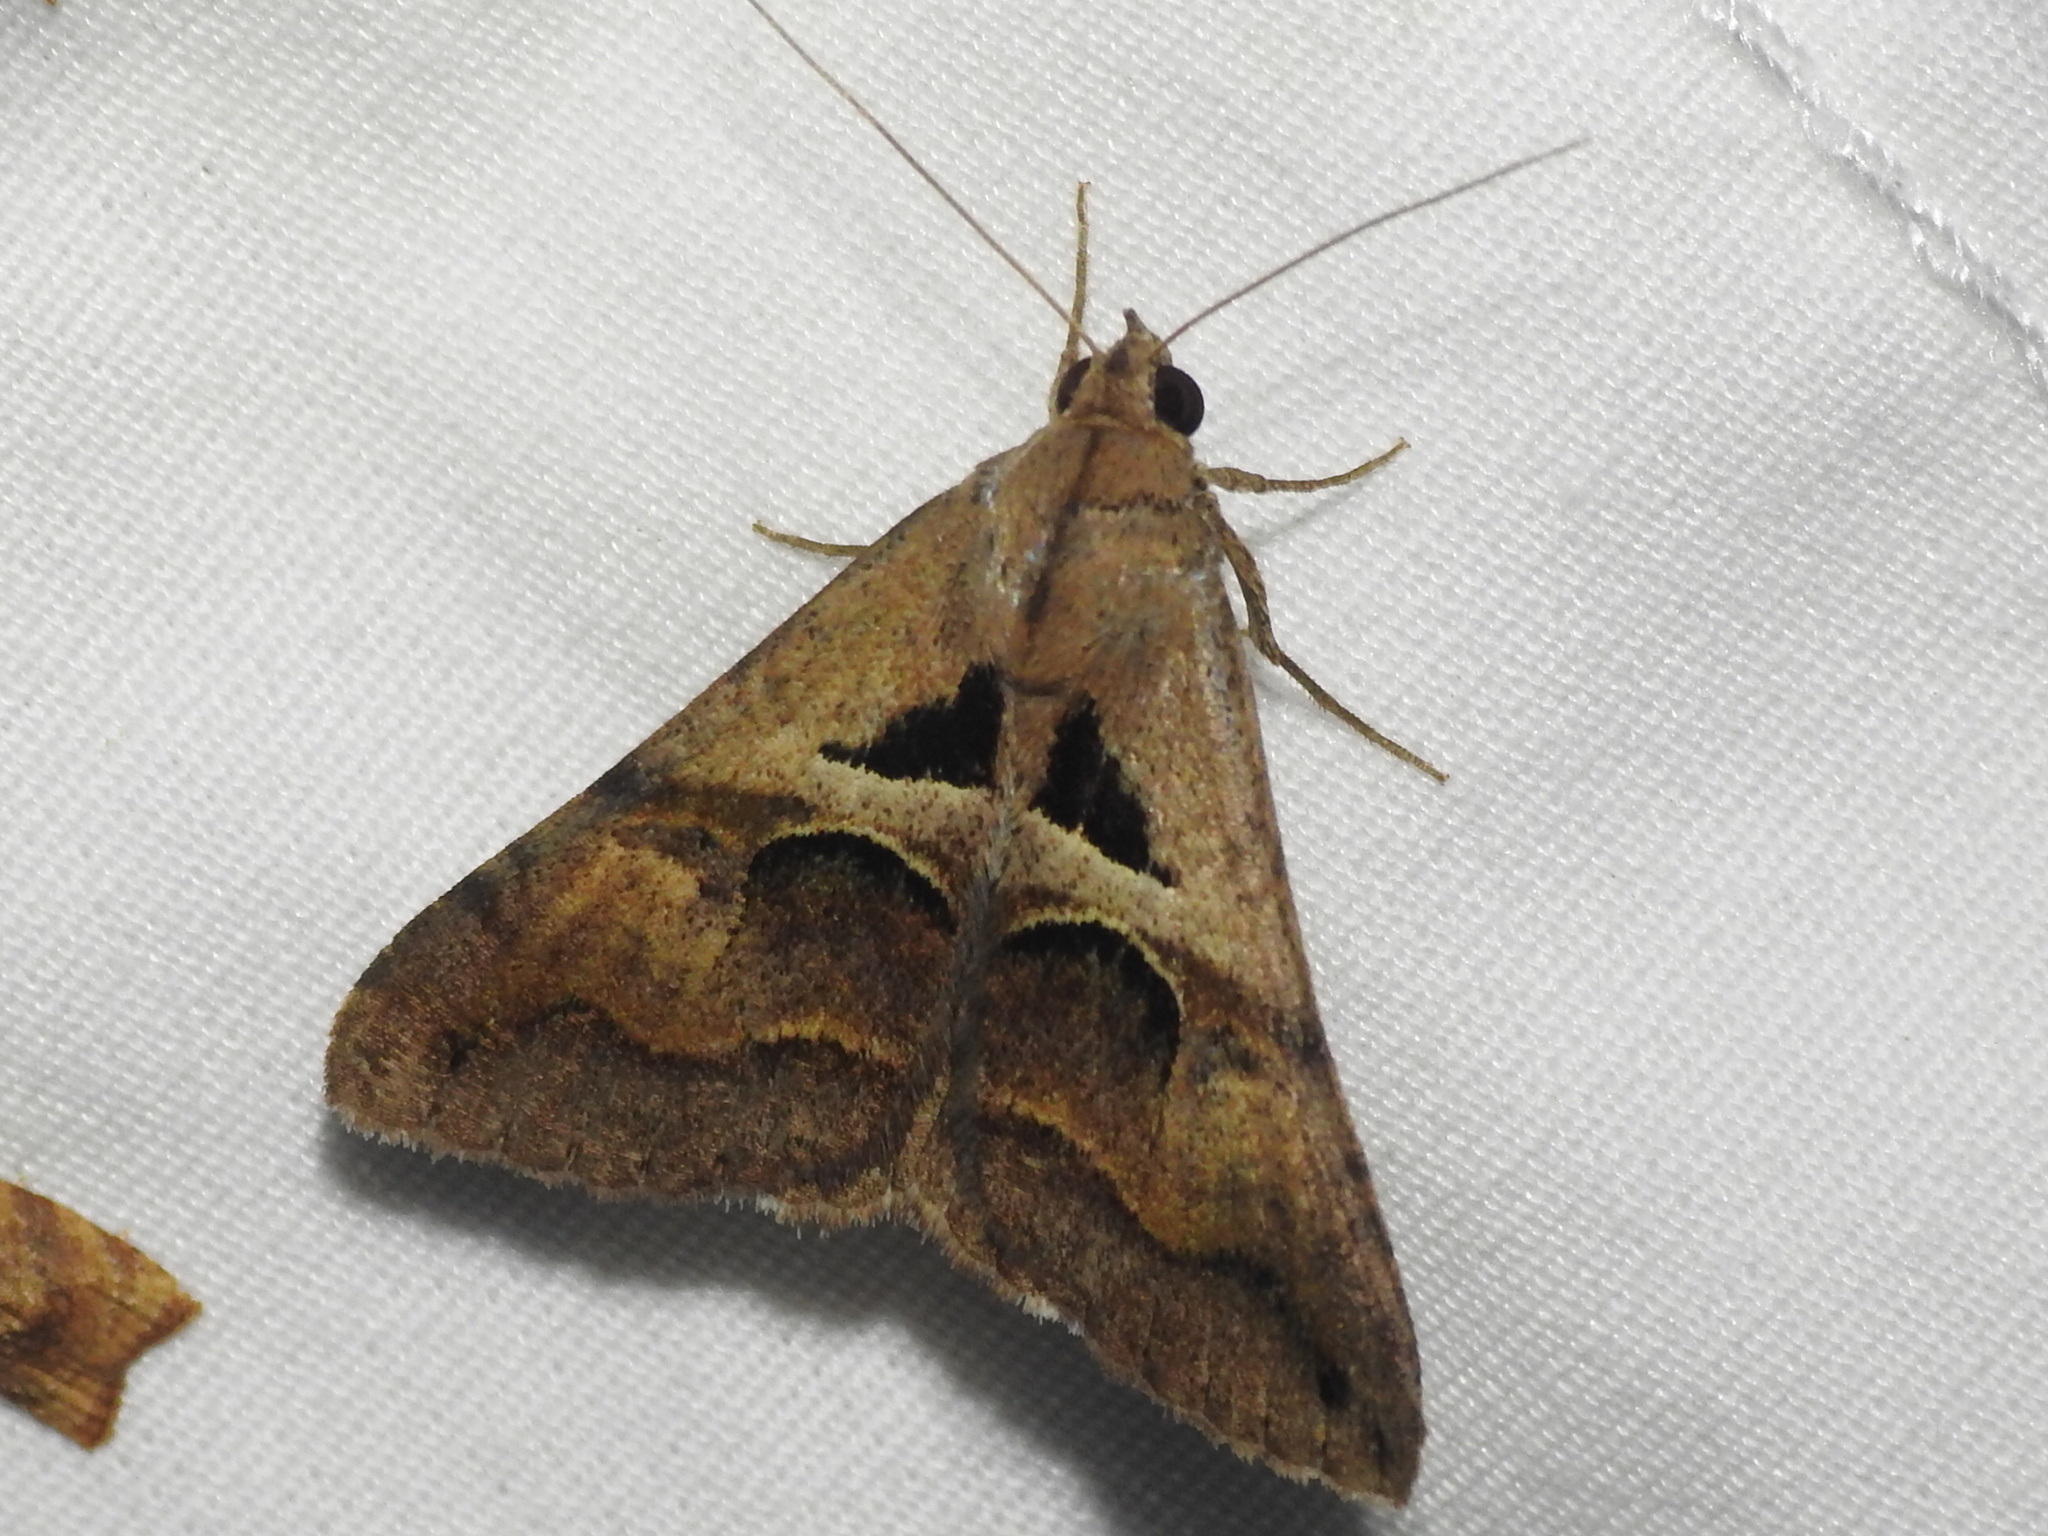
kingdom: Animalia
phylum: Arthropoda
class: Insecta
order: Lepidoptera
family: Erebidae
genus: Melipotis
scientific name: Melipotis cellaris
